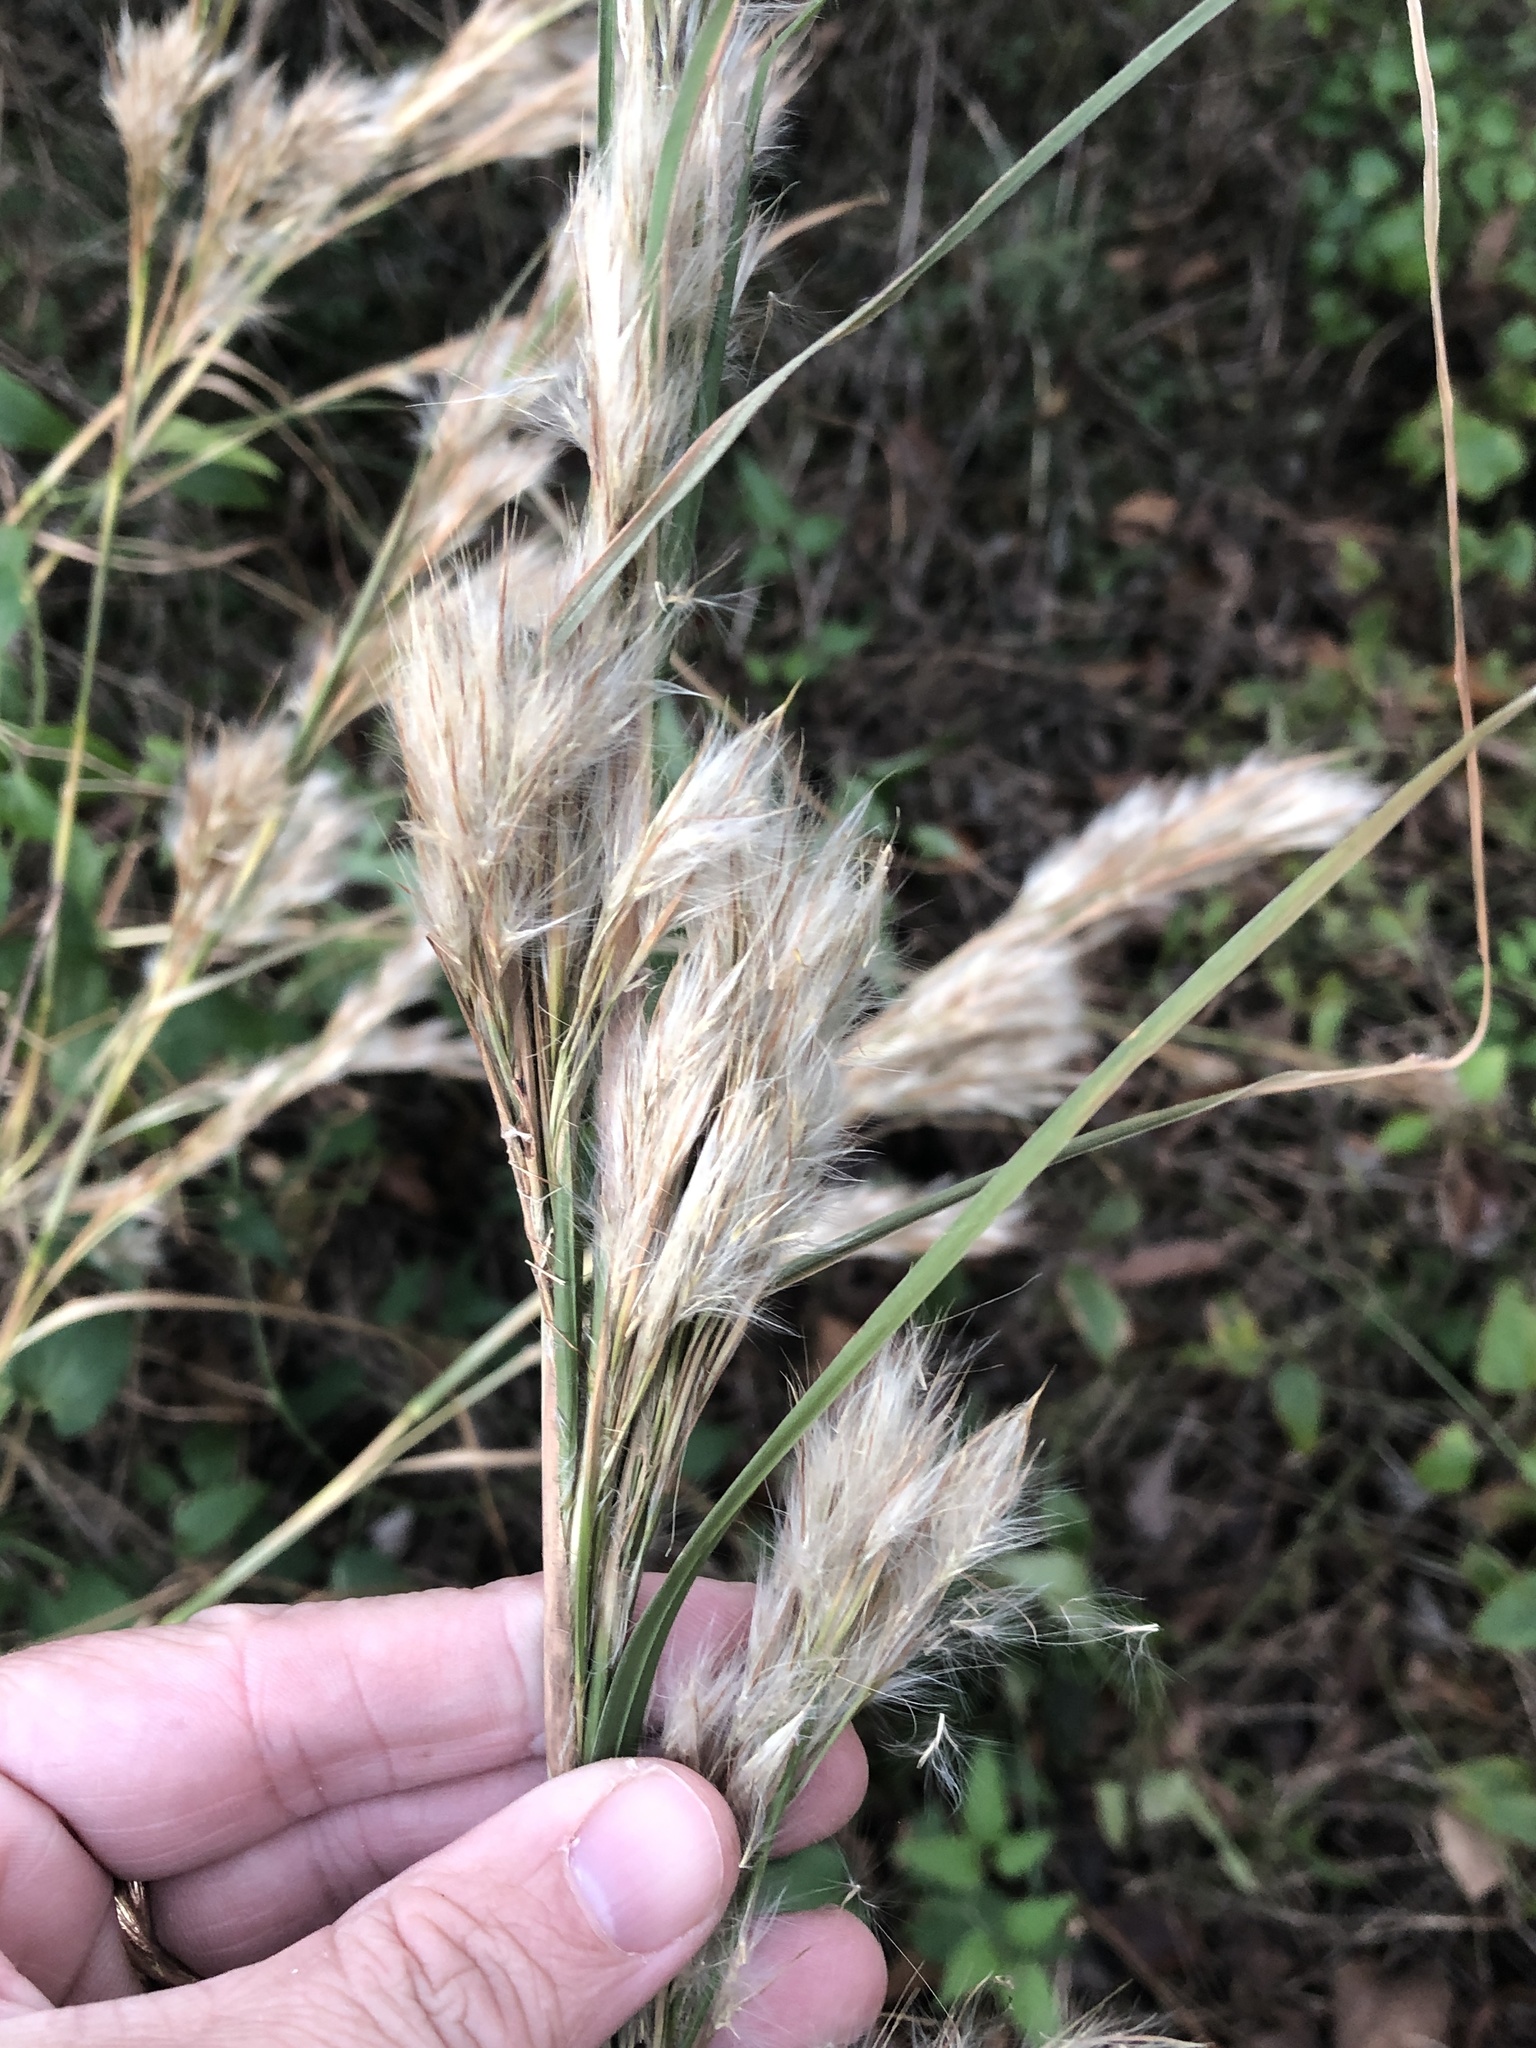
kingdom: Plantae
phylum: Tracheophyta
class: Liliopsida
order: Poales
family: Poaceae
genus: Andropogon
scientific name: Andropogon tenuispatheus
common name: Bushy bluestem
